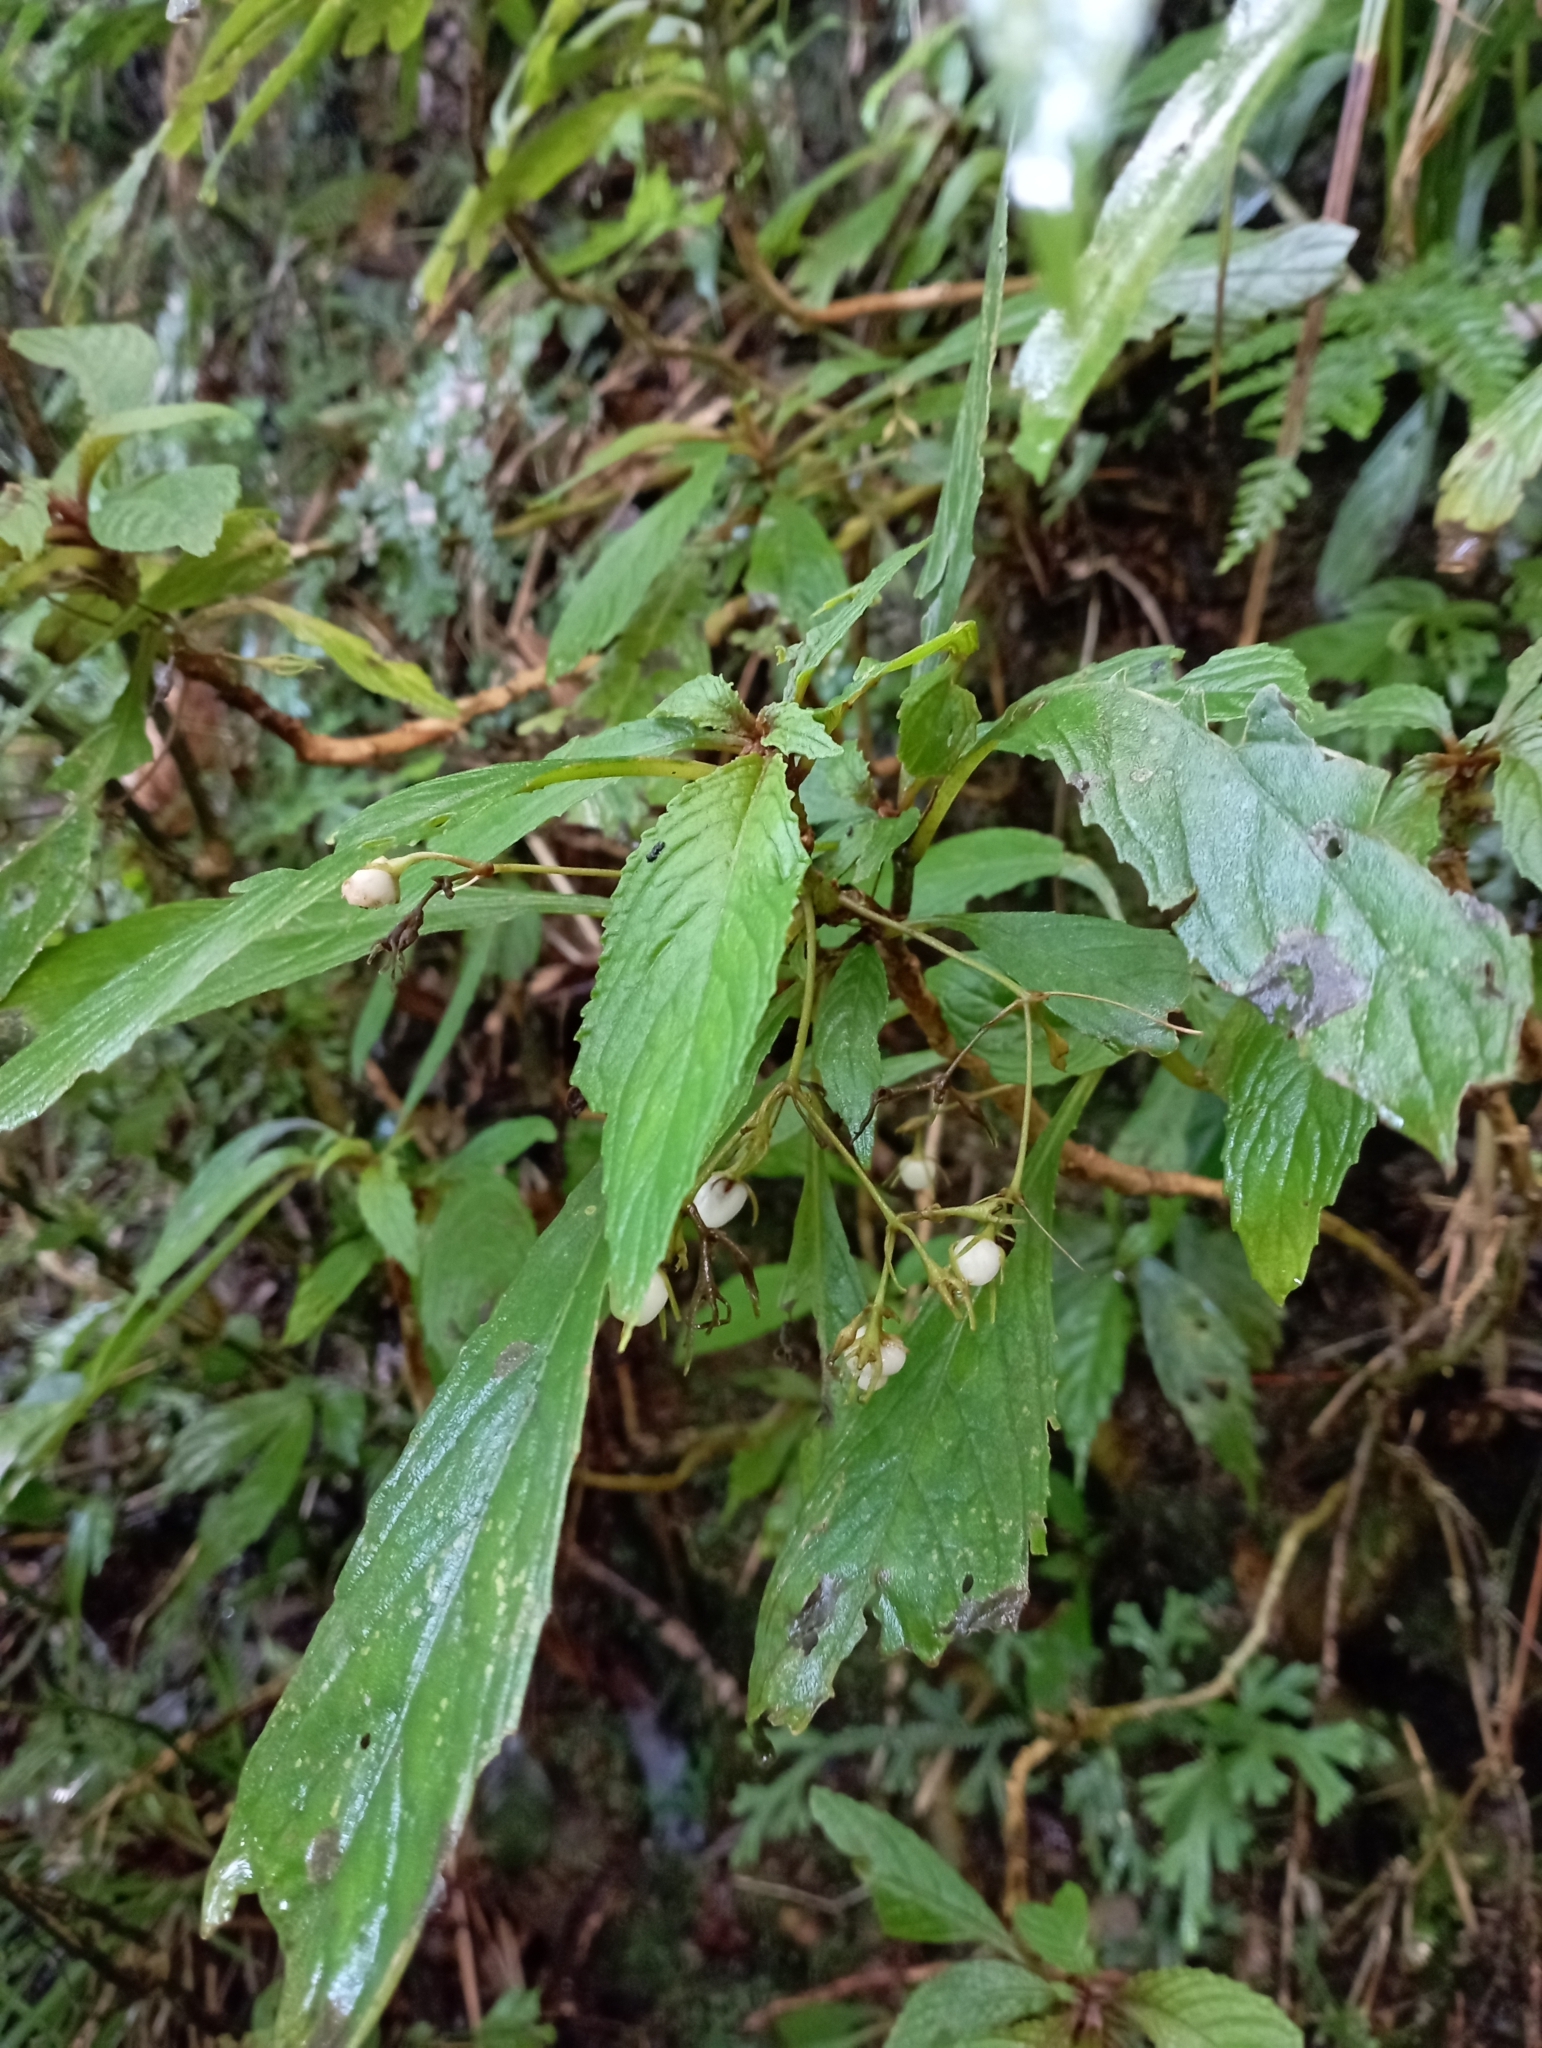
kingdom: Plantae
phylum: Tracheophyta
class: Magnoliopsida
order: Lamiales
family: Gesneriaceae
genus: Rhynchotechum
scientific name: Rhynchotechum discolor
